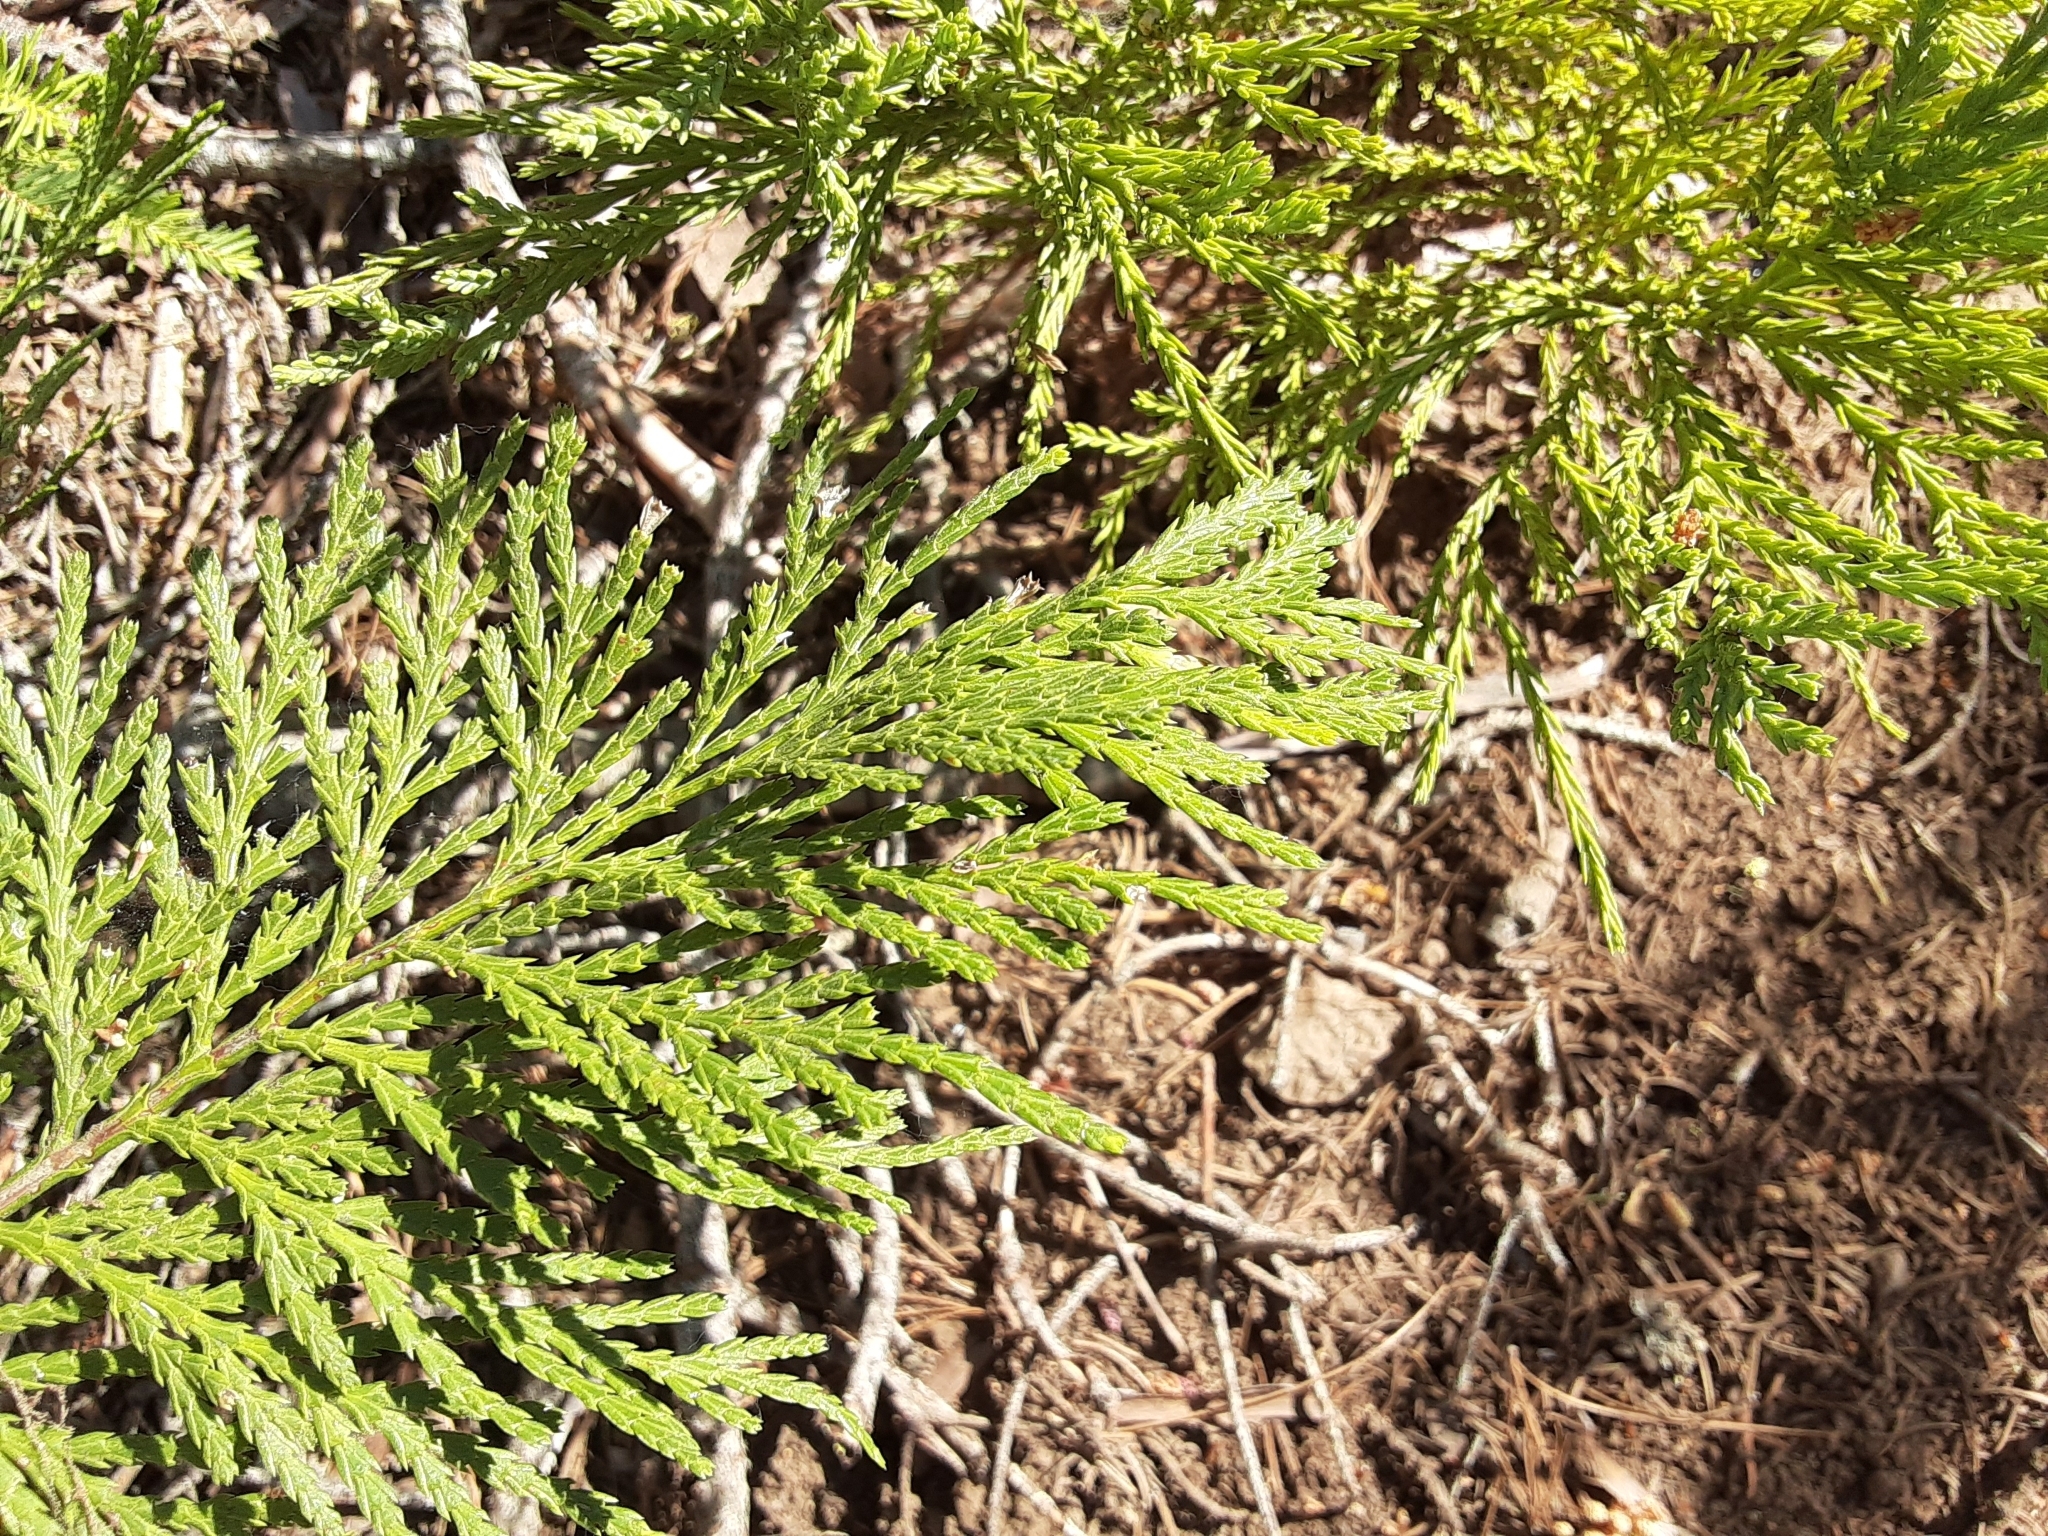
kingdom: Plantae
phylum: Tracheophyta
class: Pinopsida
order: Pinales
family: Cupressaceae
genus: Sequoiadendron
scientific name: Sequoiadendron giganteum
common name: Wellingtonia
